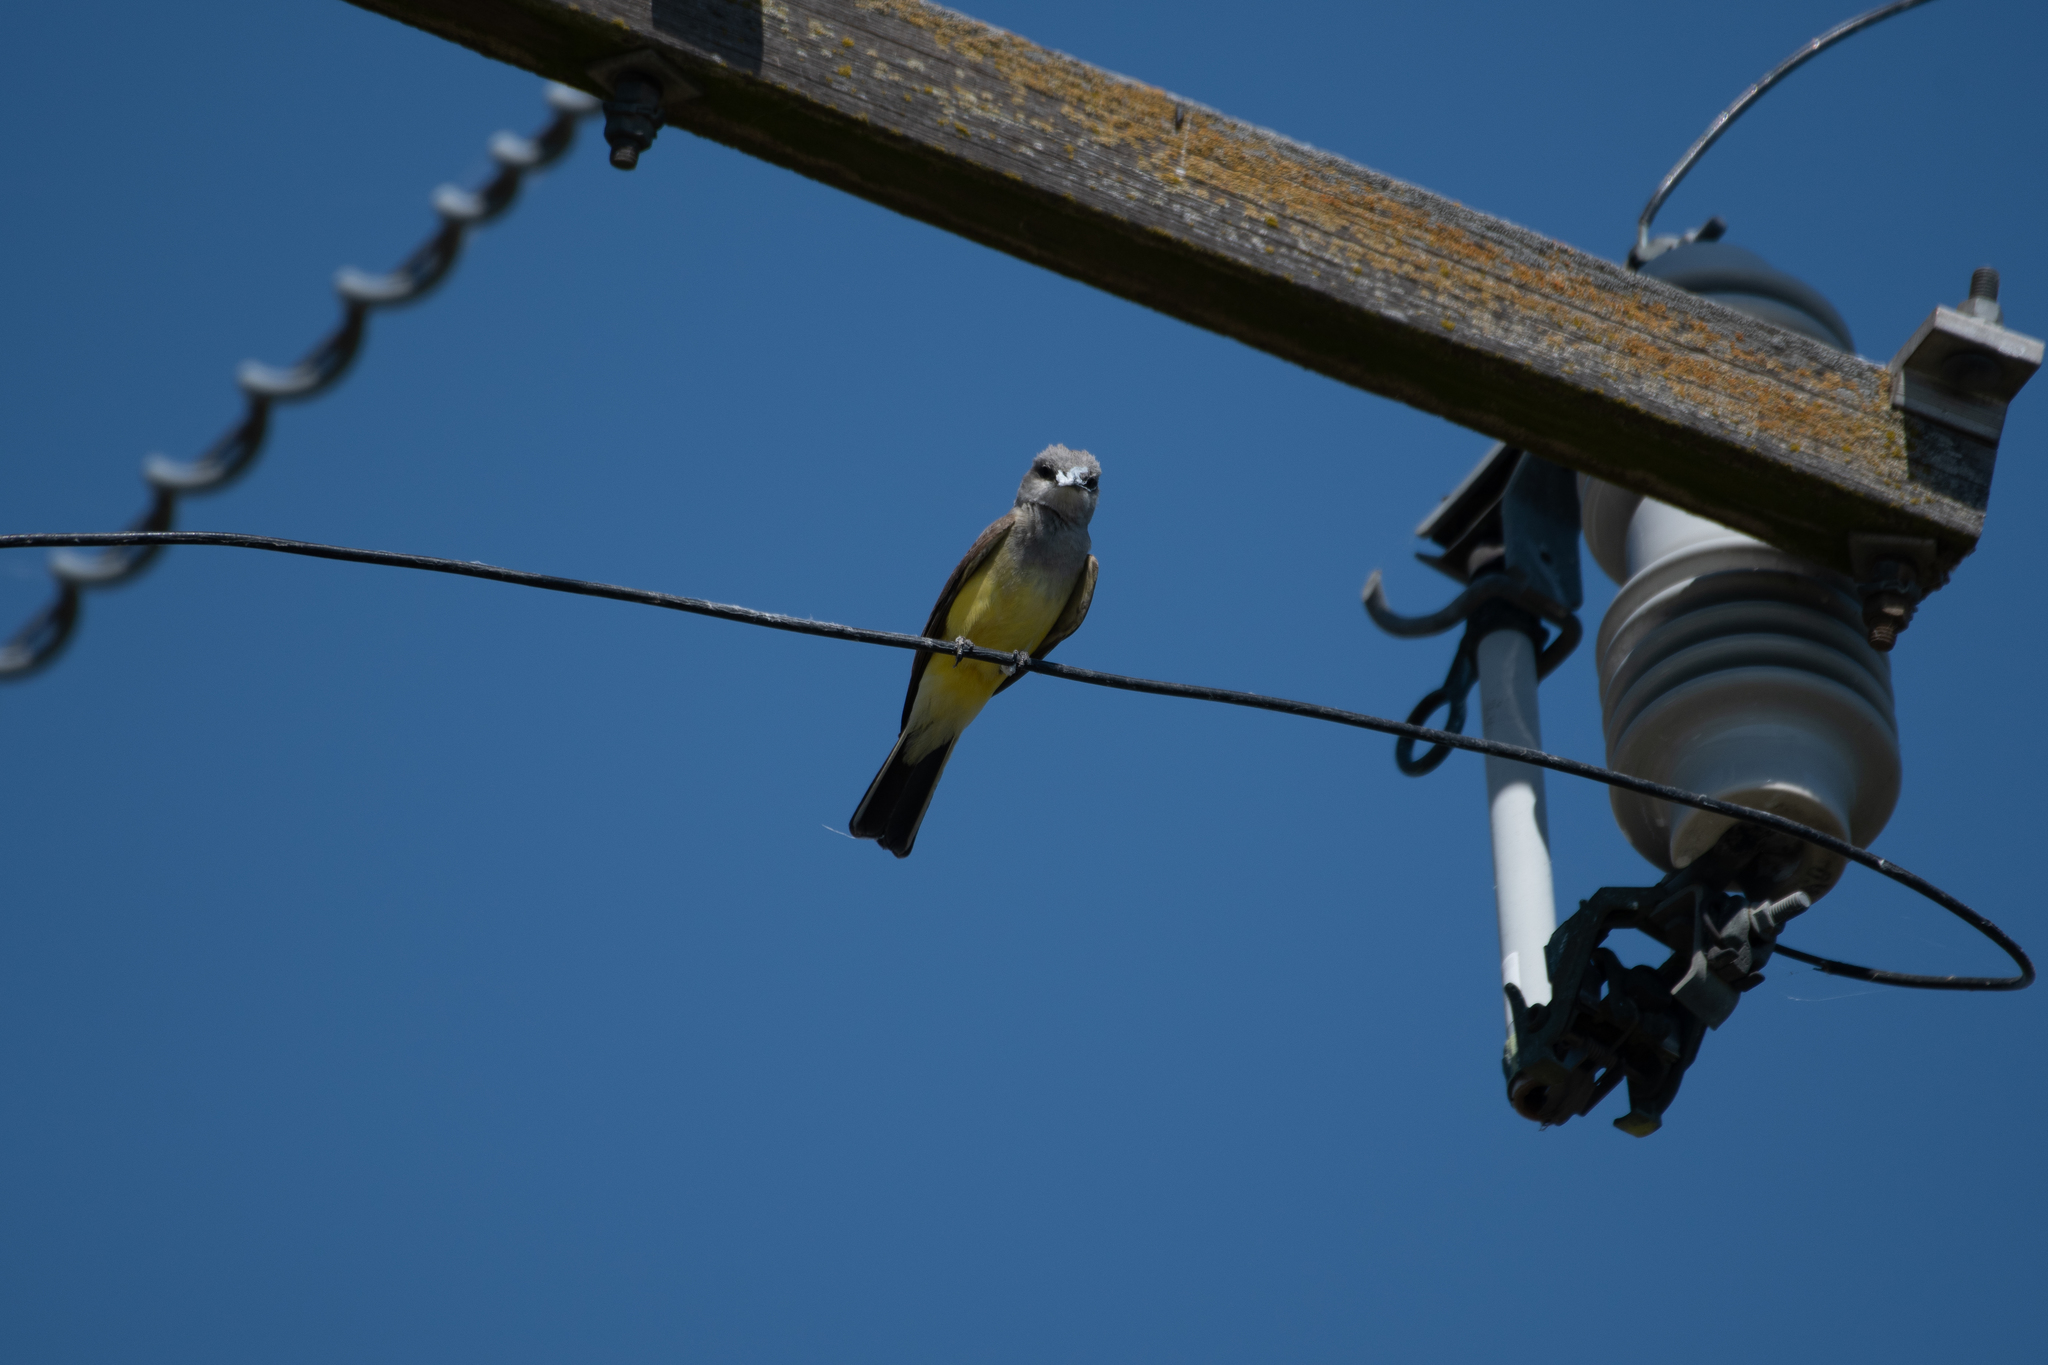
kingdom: Animalia
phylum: Chordata
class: Aves
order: Passeriformes
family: Tyrannidae
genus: Tyrannus
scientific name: Tyrannus verticalis
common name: Western kingbird
